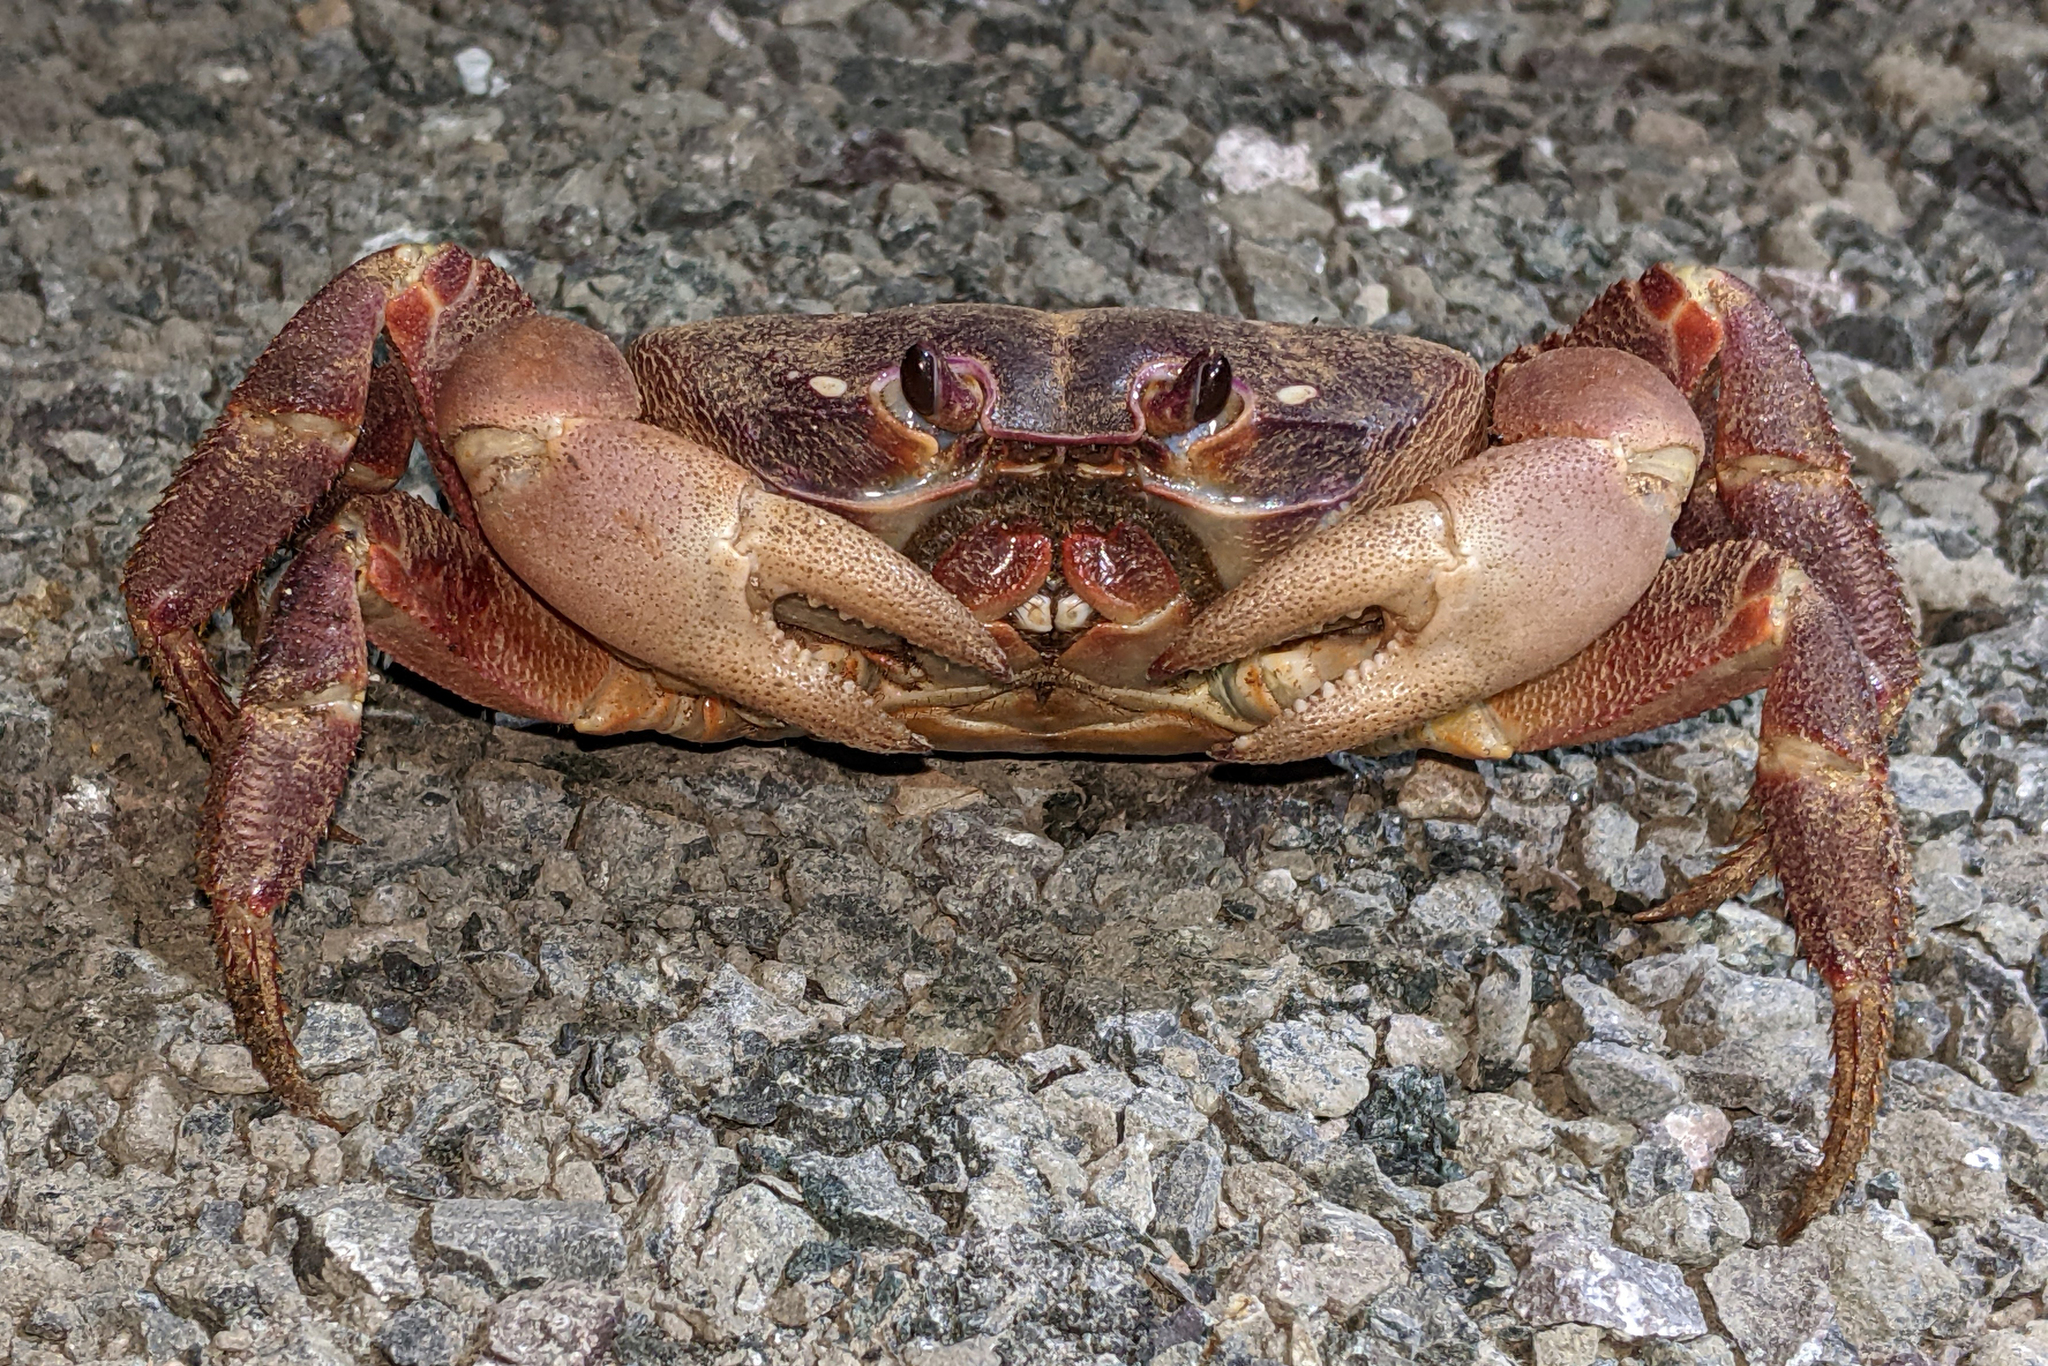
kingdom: Animalia
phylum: Arthropoda
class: Malacostraca
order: Decapoda
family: Gecarcinidae
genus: Gecarcoidea
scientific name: Gecarcoidea humei
